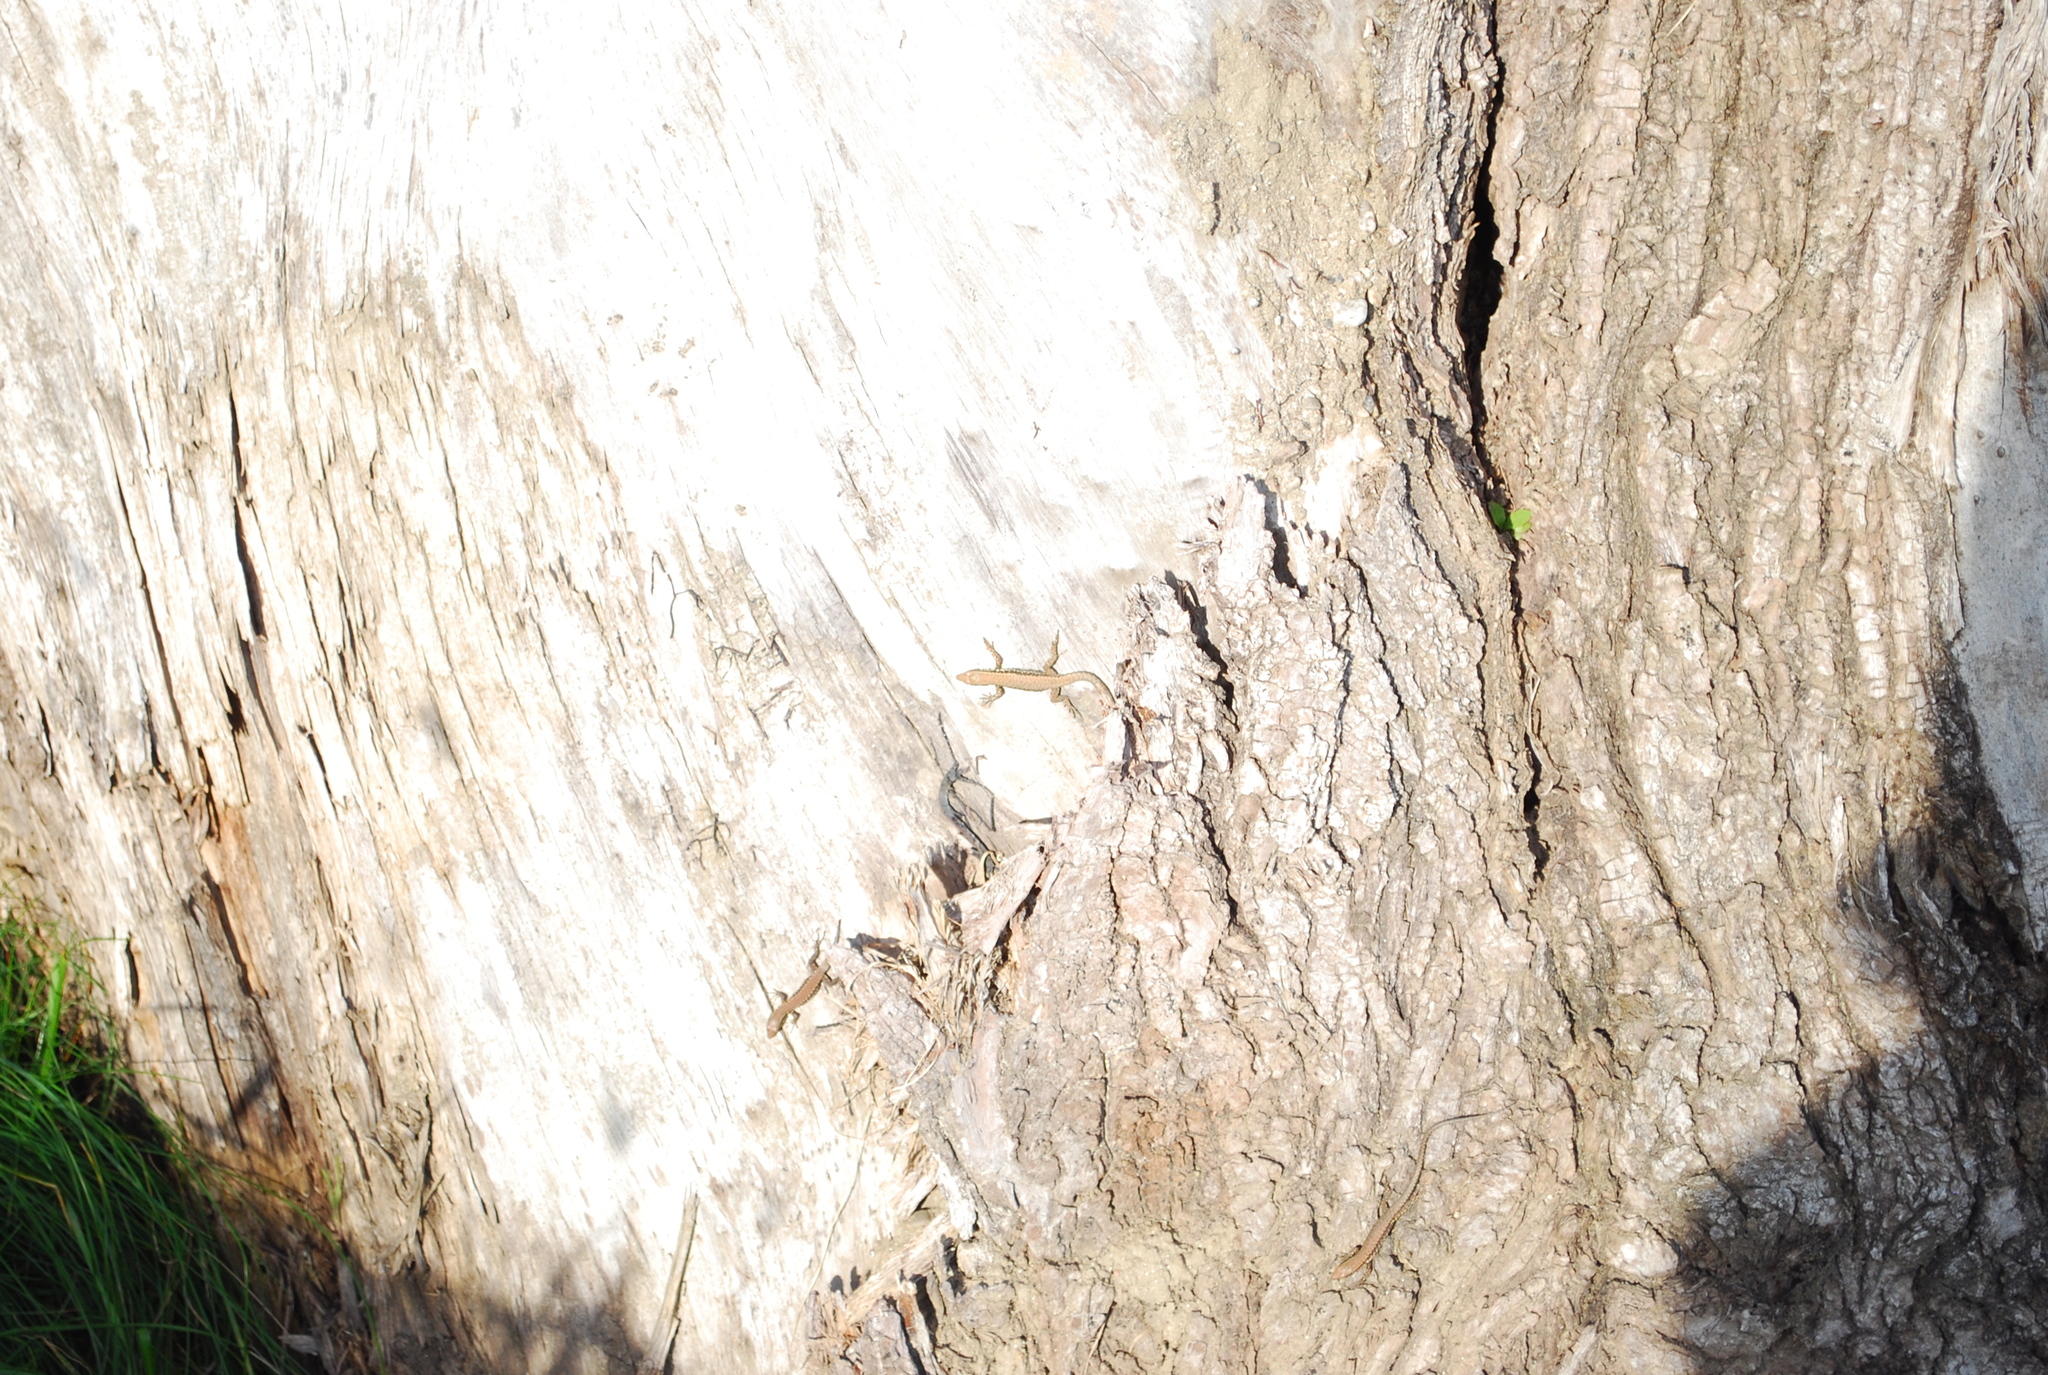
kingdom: Animalia
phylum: Chordata
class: Squamata
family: Lacertidae
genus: Podarcis
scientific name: Podarcis muralis
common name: Common wall lizard
